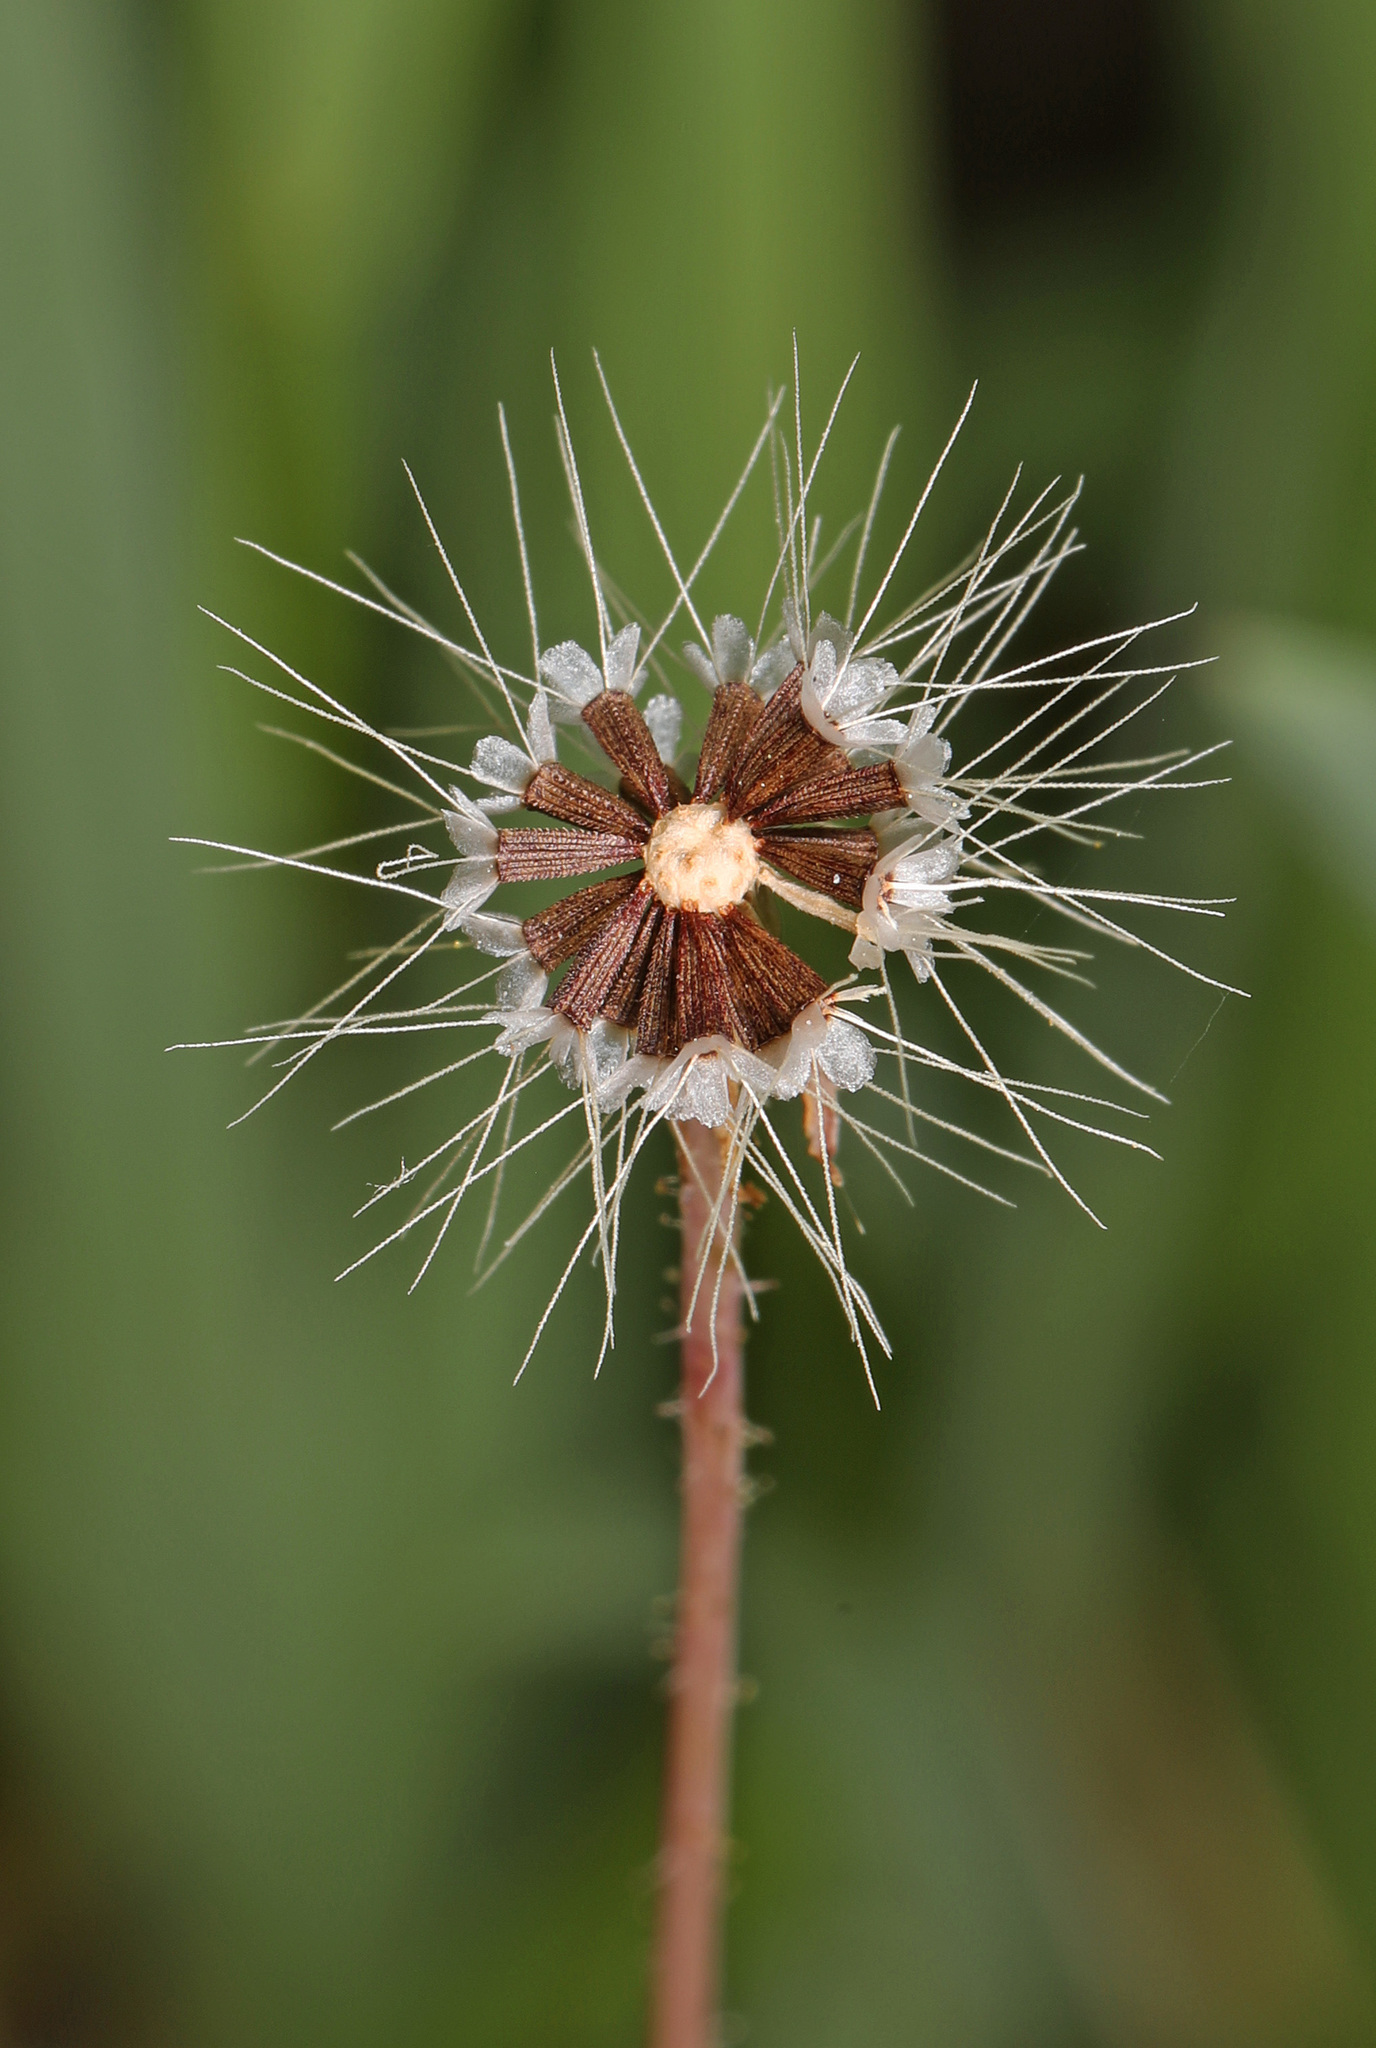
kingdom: Plantae
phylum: Tracheophyta
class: Magnoliopsida
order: Asterales
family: Asteraceae
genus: Krigia
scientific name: Krigia virginica
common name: Virginia dwarf-dandelion
